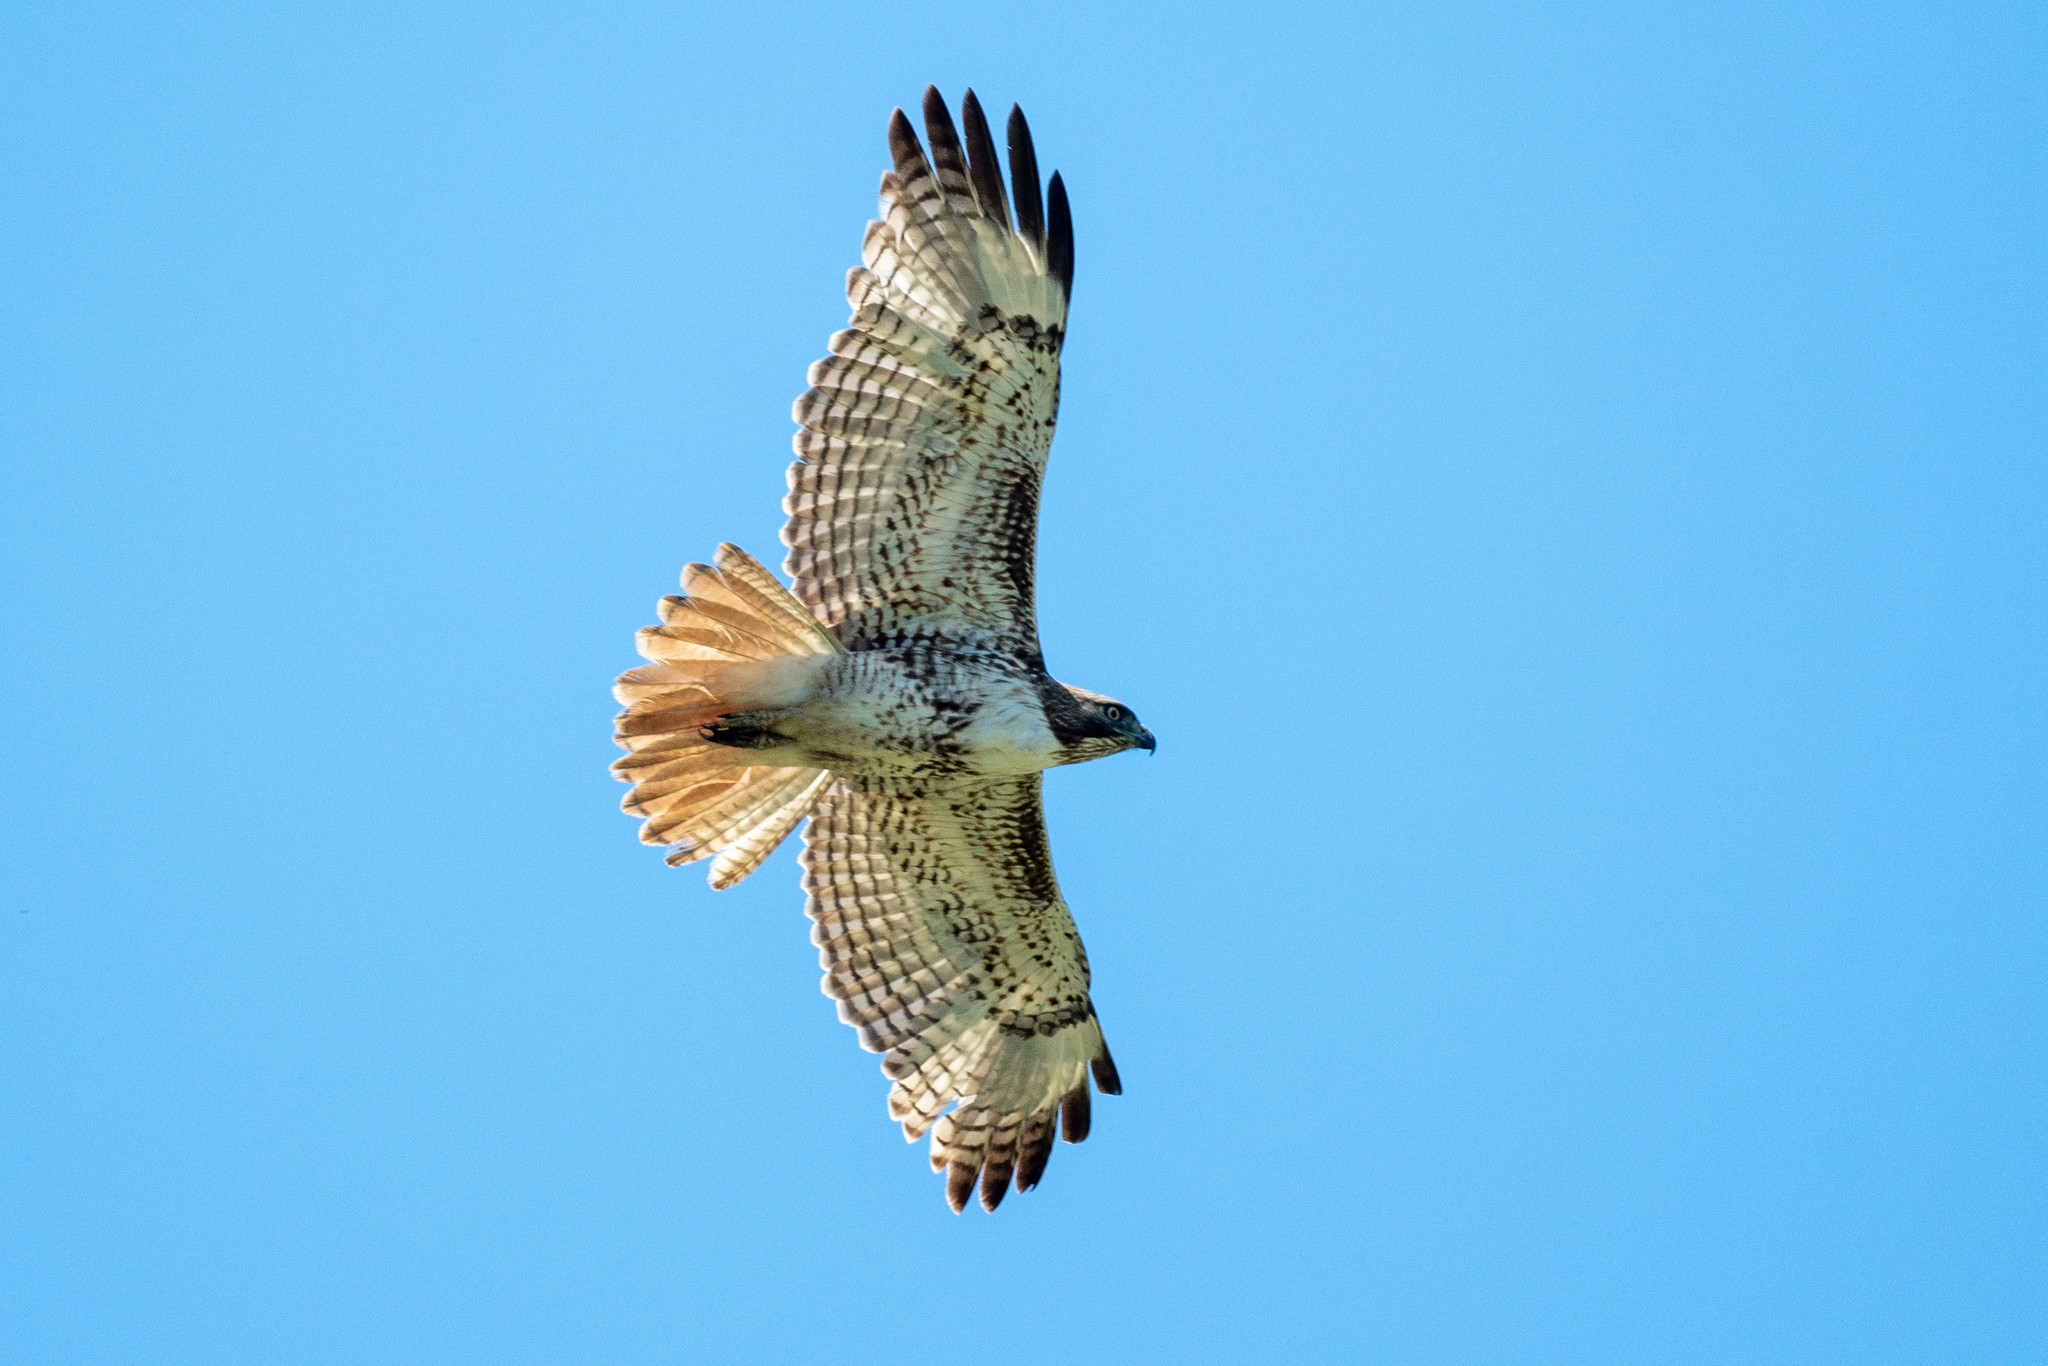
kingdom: Animalia
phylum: Chordata
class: Aves
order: Accipitriformes
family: Accipitridae
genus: Buteo
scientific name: Buteo jamaicensis
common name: Red-tailed hawk
